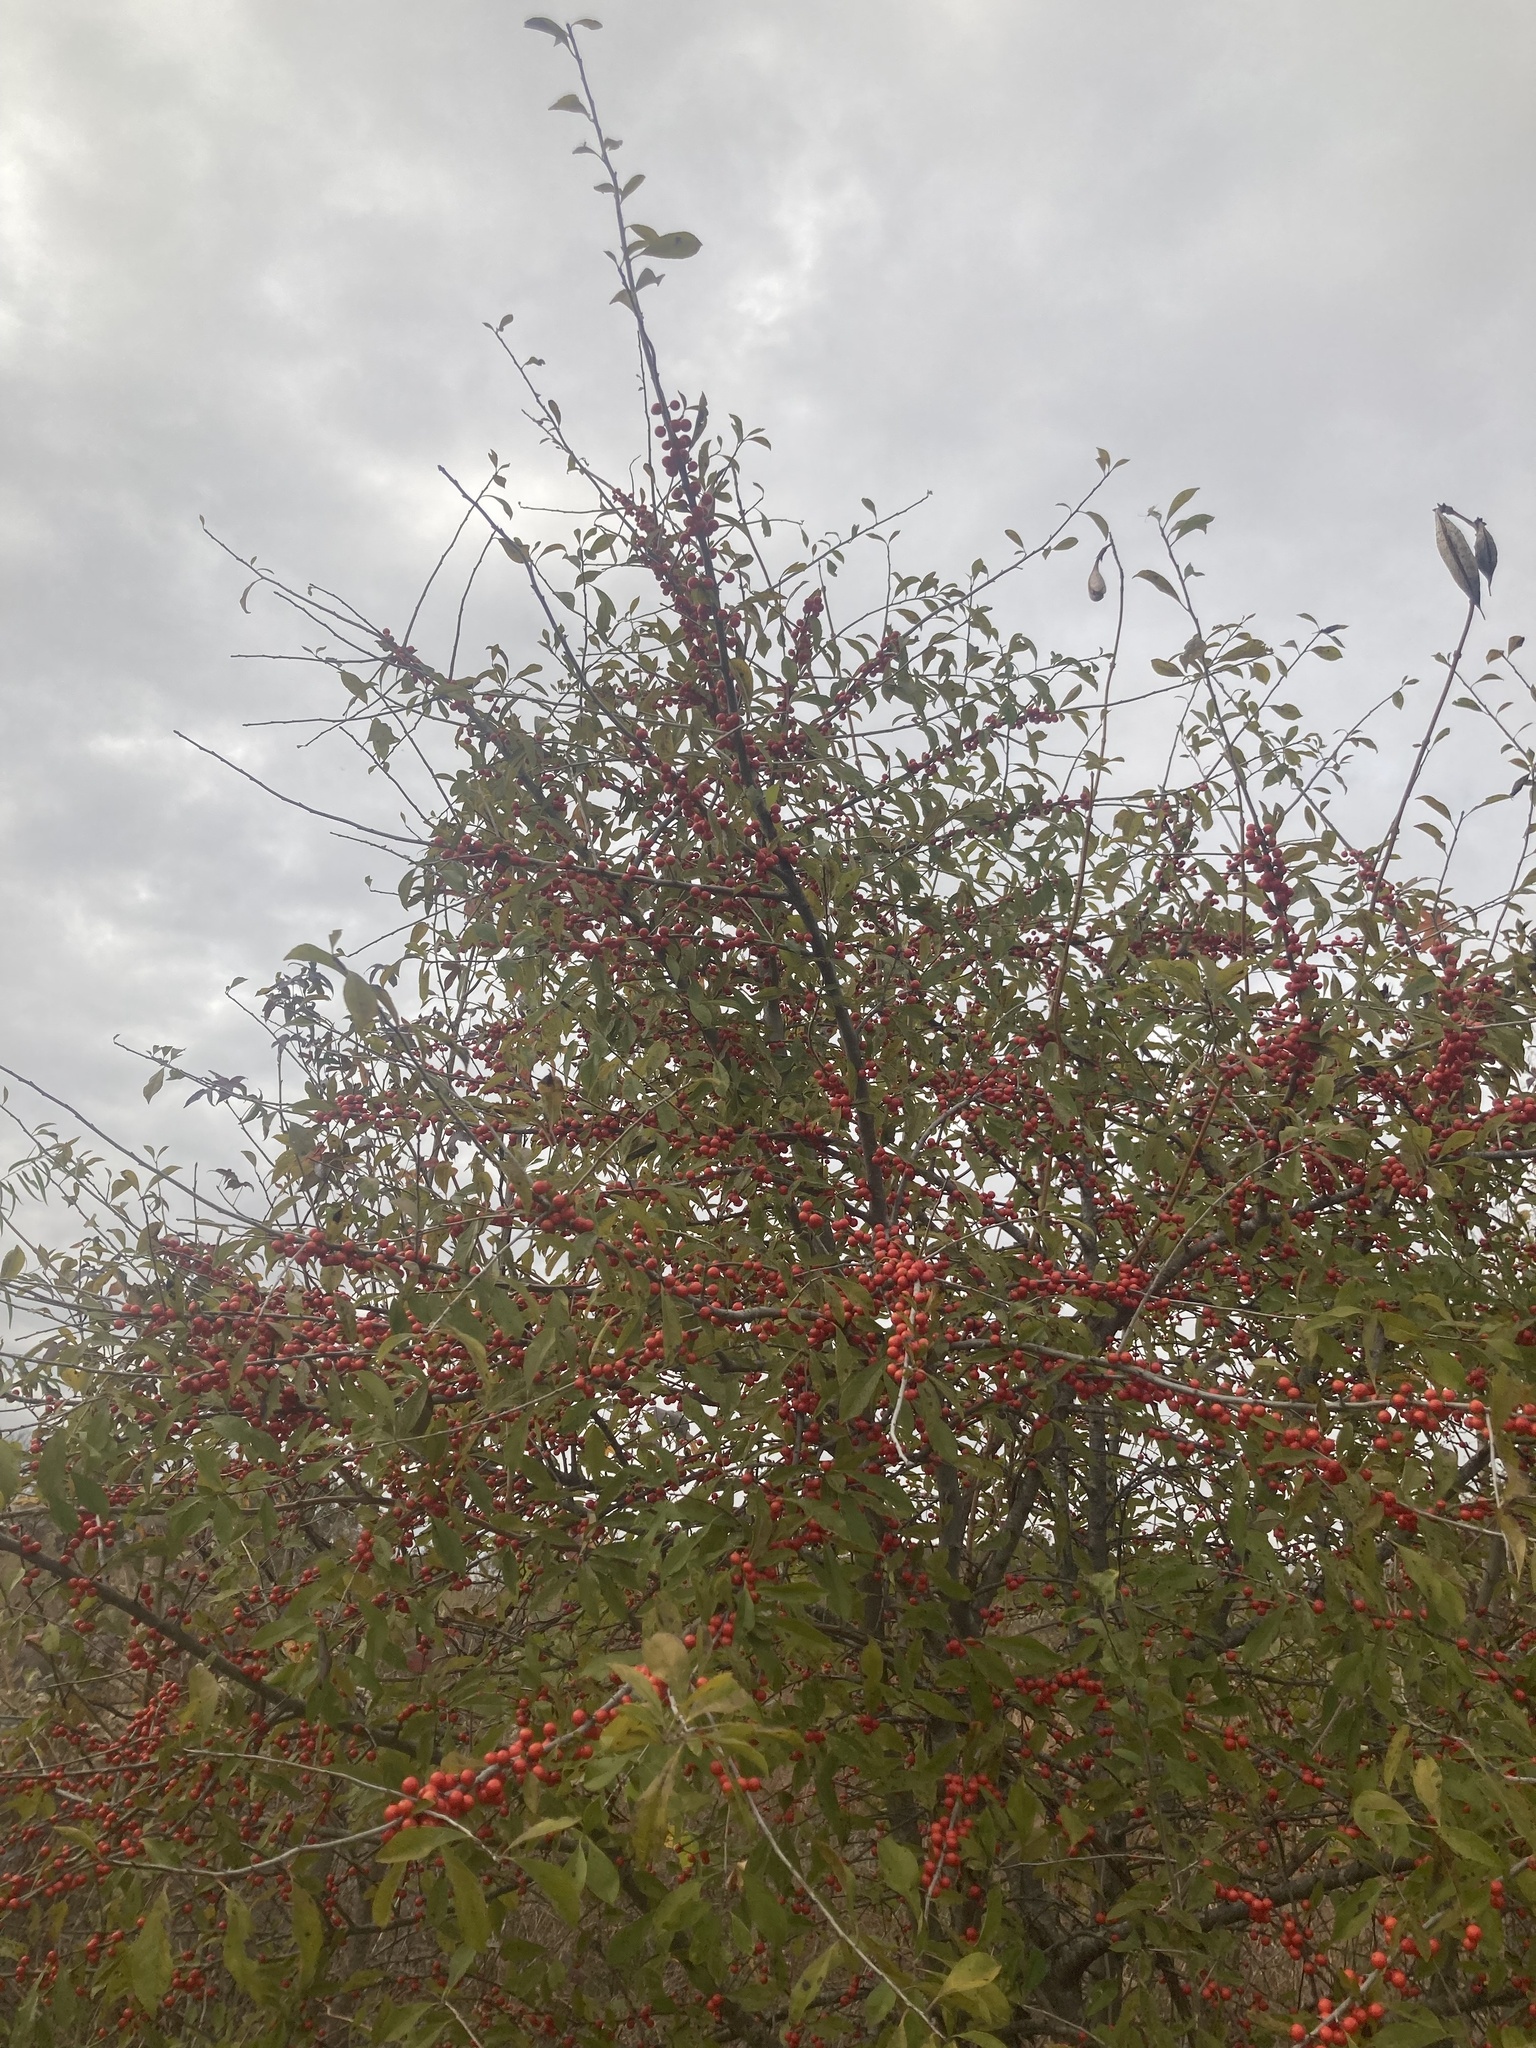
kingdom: Plantae
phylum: Tracheophyta
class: Magnoliopsida
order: Aquifoliales
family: Aquifoliaceae
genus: Ilex
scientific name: Ilex decidua
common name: Possum-haw
